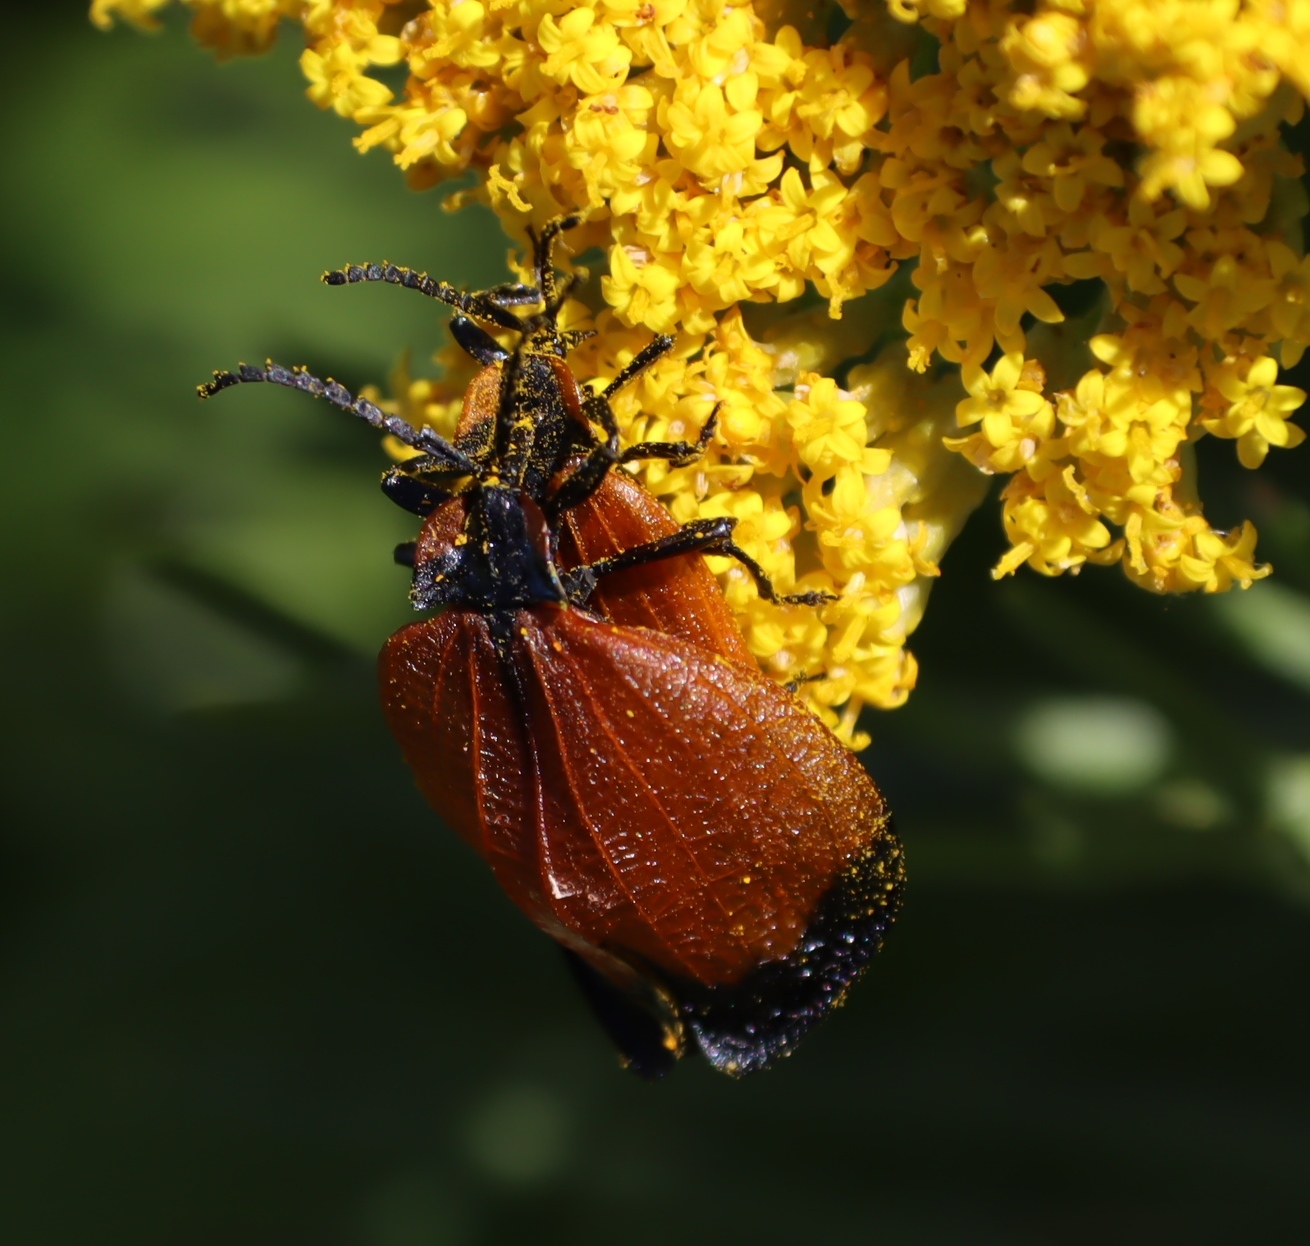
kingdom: Animalia
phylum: Arthropoda
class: Insecta
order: Coleoptera
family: Lycidae
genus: Lycus
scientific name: Lycus
